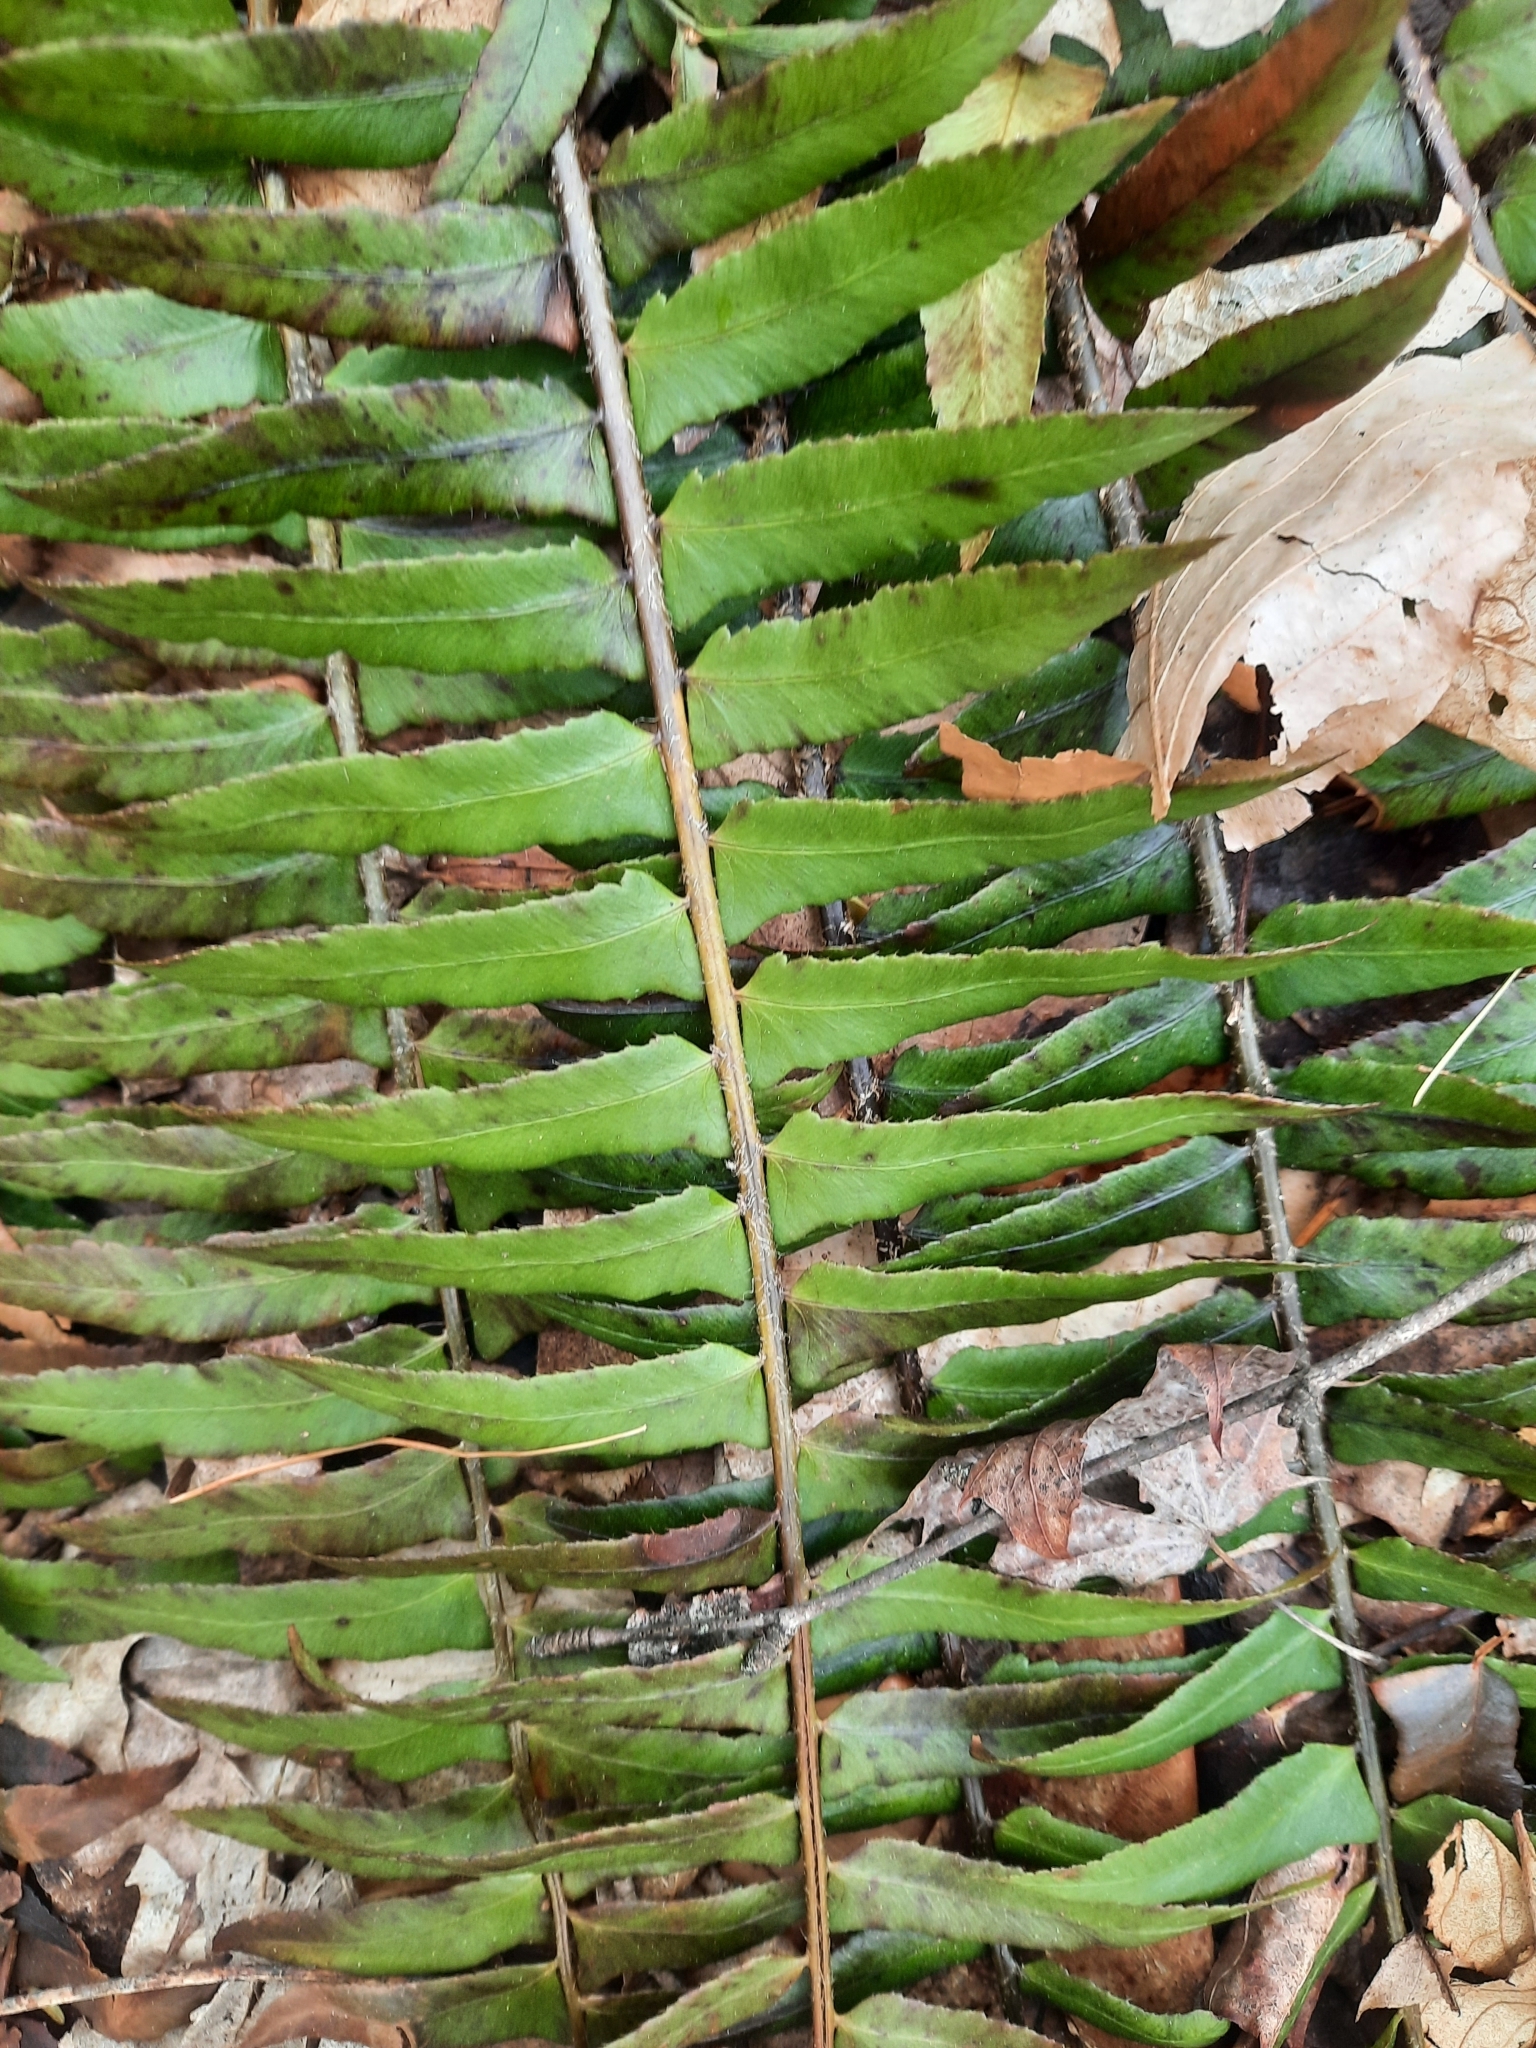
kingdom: Plantae
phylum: Tracheophyta
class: Polypodiopsida
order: Polypodiales
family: Dryopteridaceae
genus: Polystichum
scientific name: Polystichum acrostichoides
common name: Christmas fern
